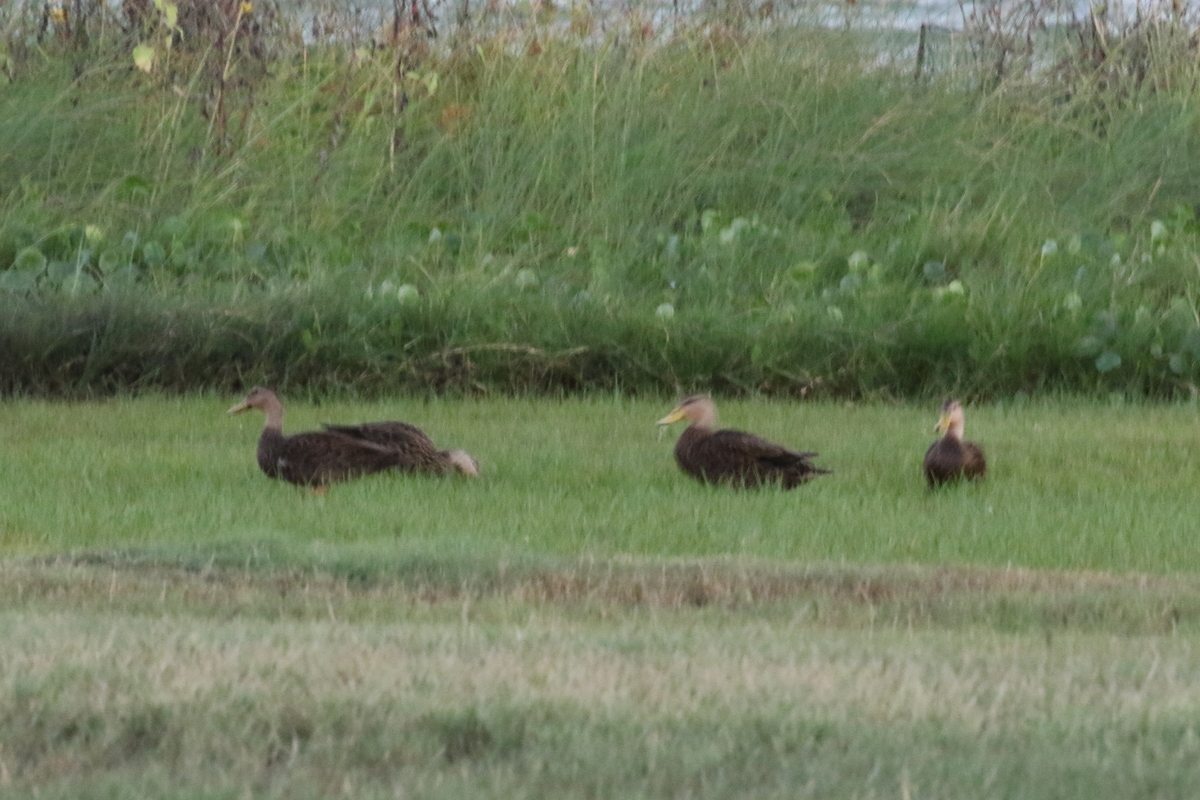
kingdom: Animalia
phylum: Chordata
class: Aves
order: Anseriformes
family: Anatidae
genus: Anas
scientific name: Anas fulvigula
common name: Mottled duck
